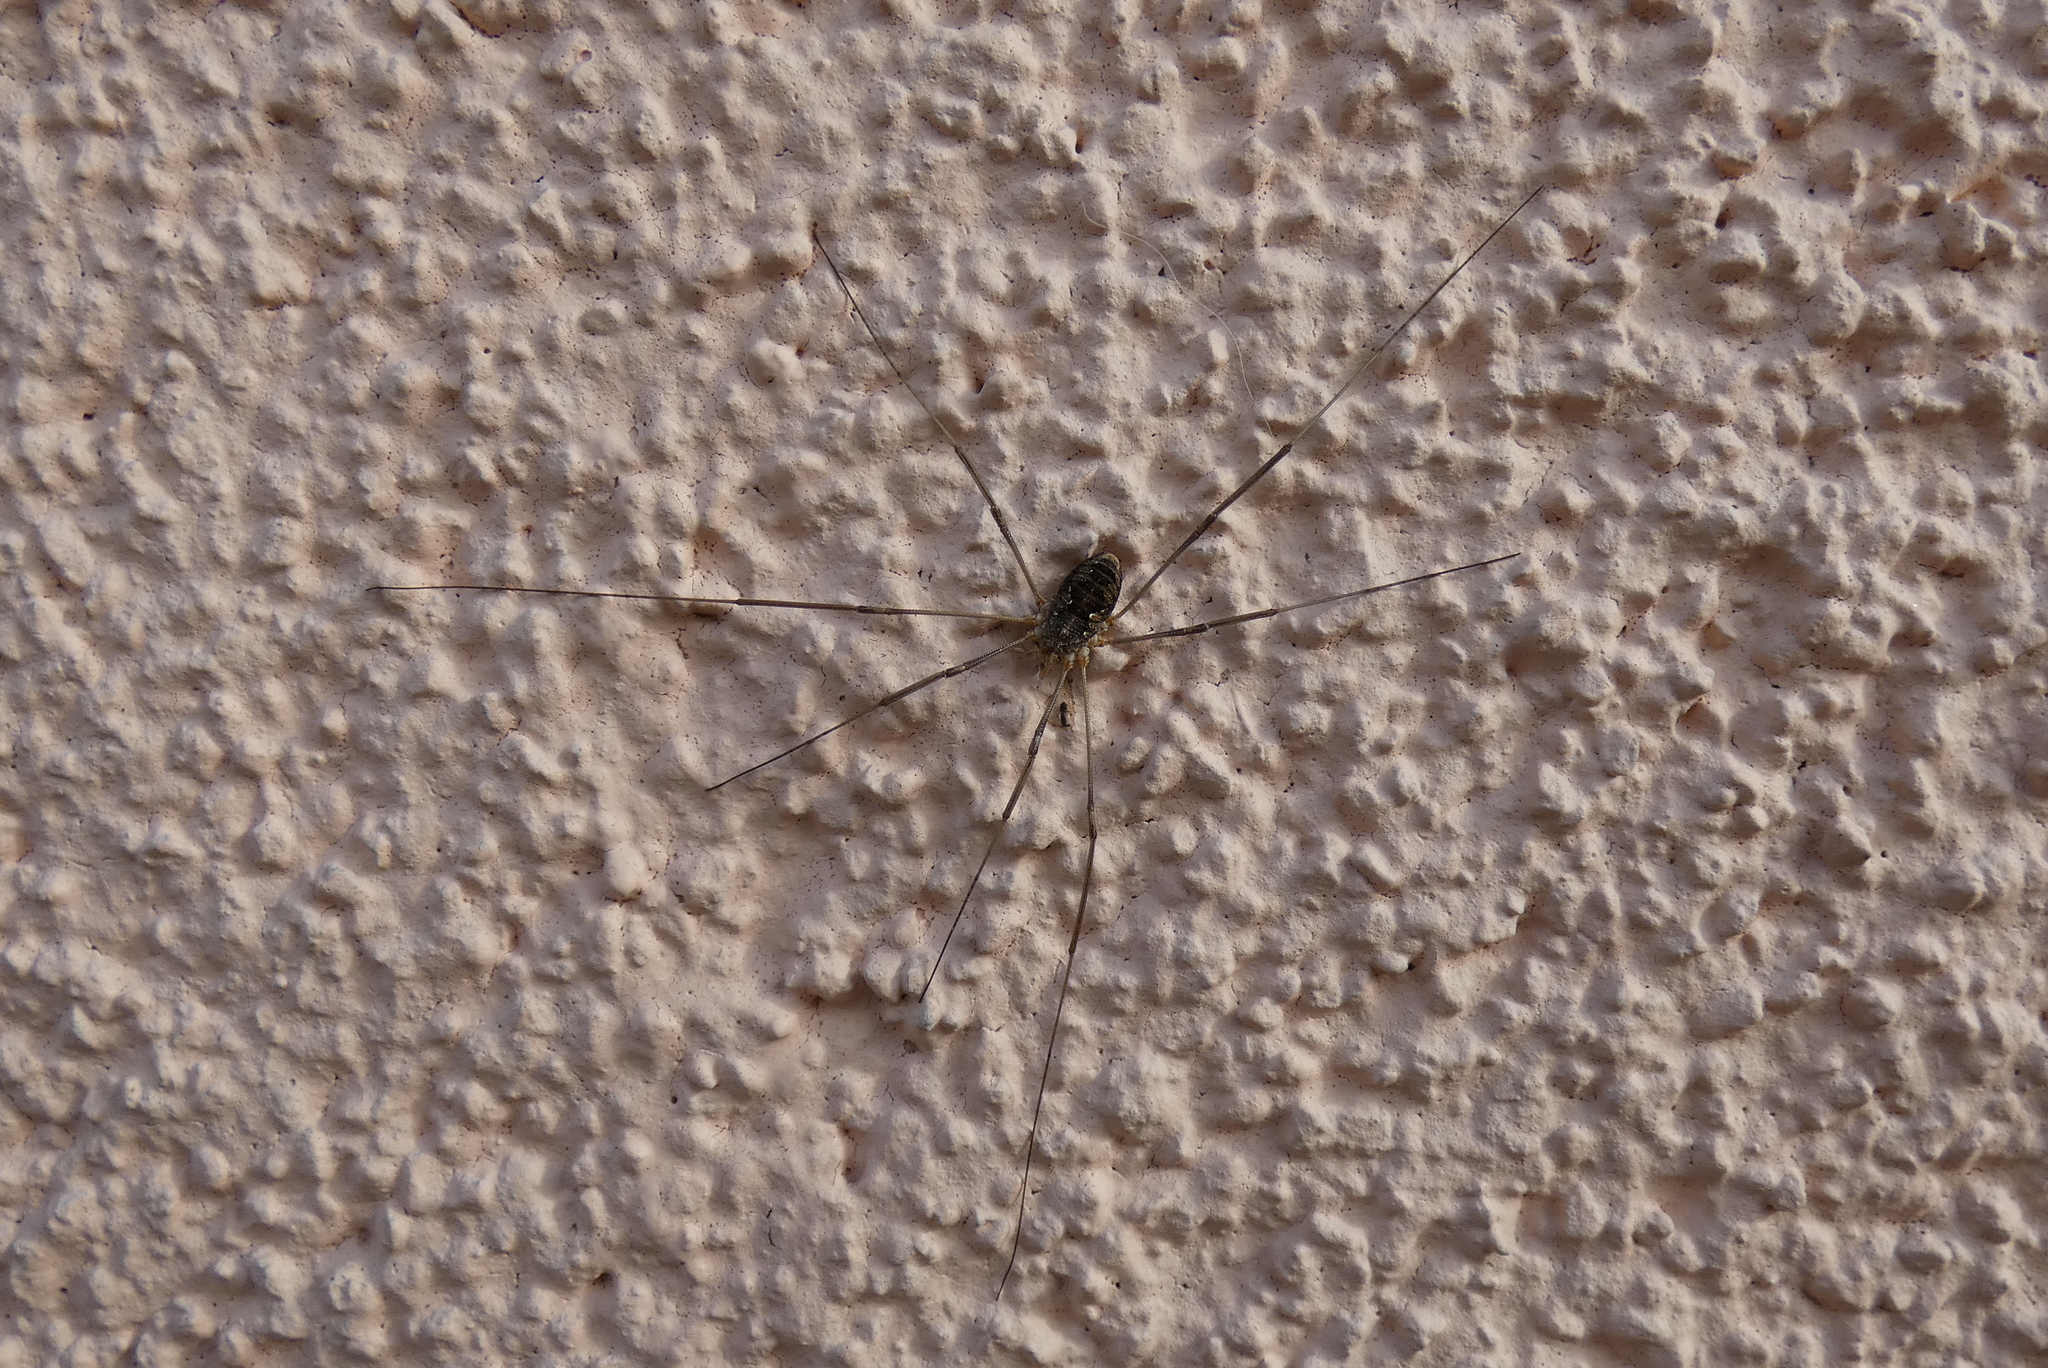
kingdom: Animalia
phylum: Arthropoda
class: Arachnida
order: Opiliones
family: Phalangiidae
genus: Phalangium
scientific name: Phalangium opilio
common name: Daddy longleg
